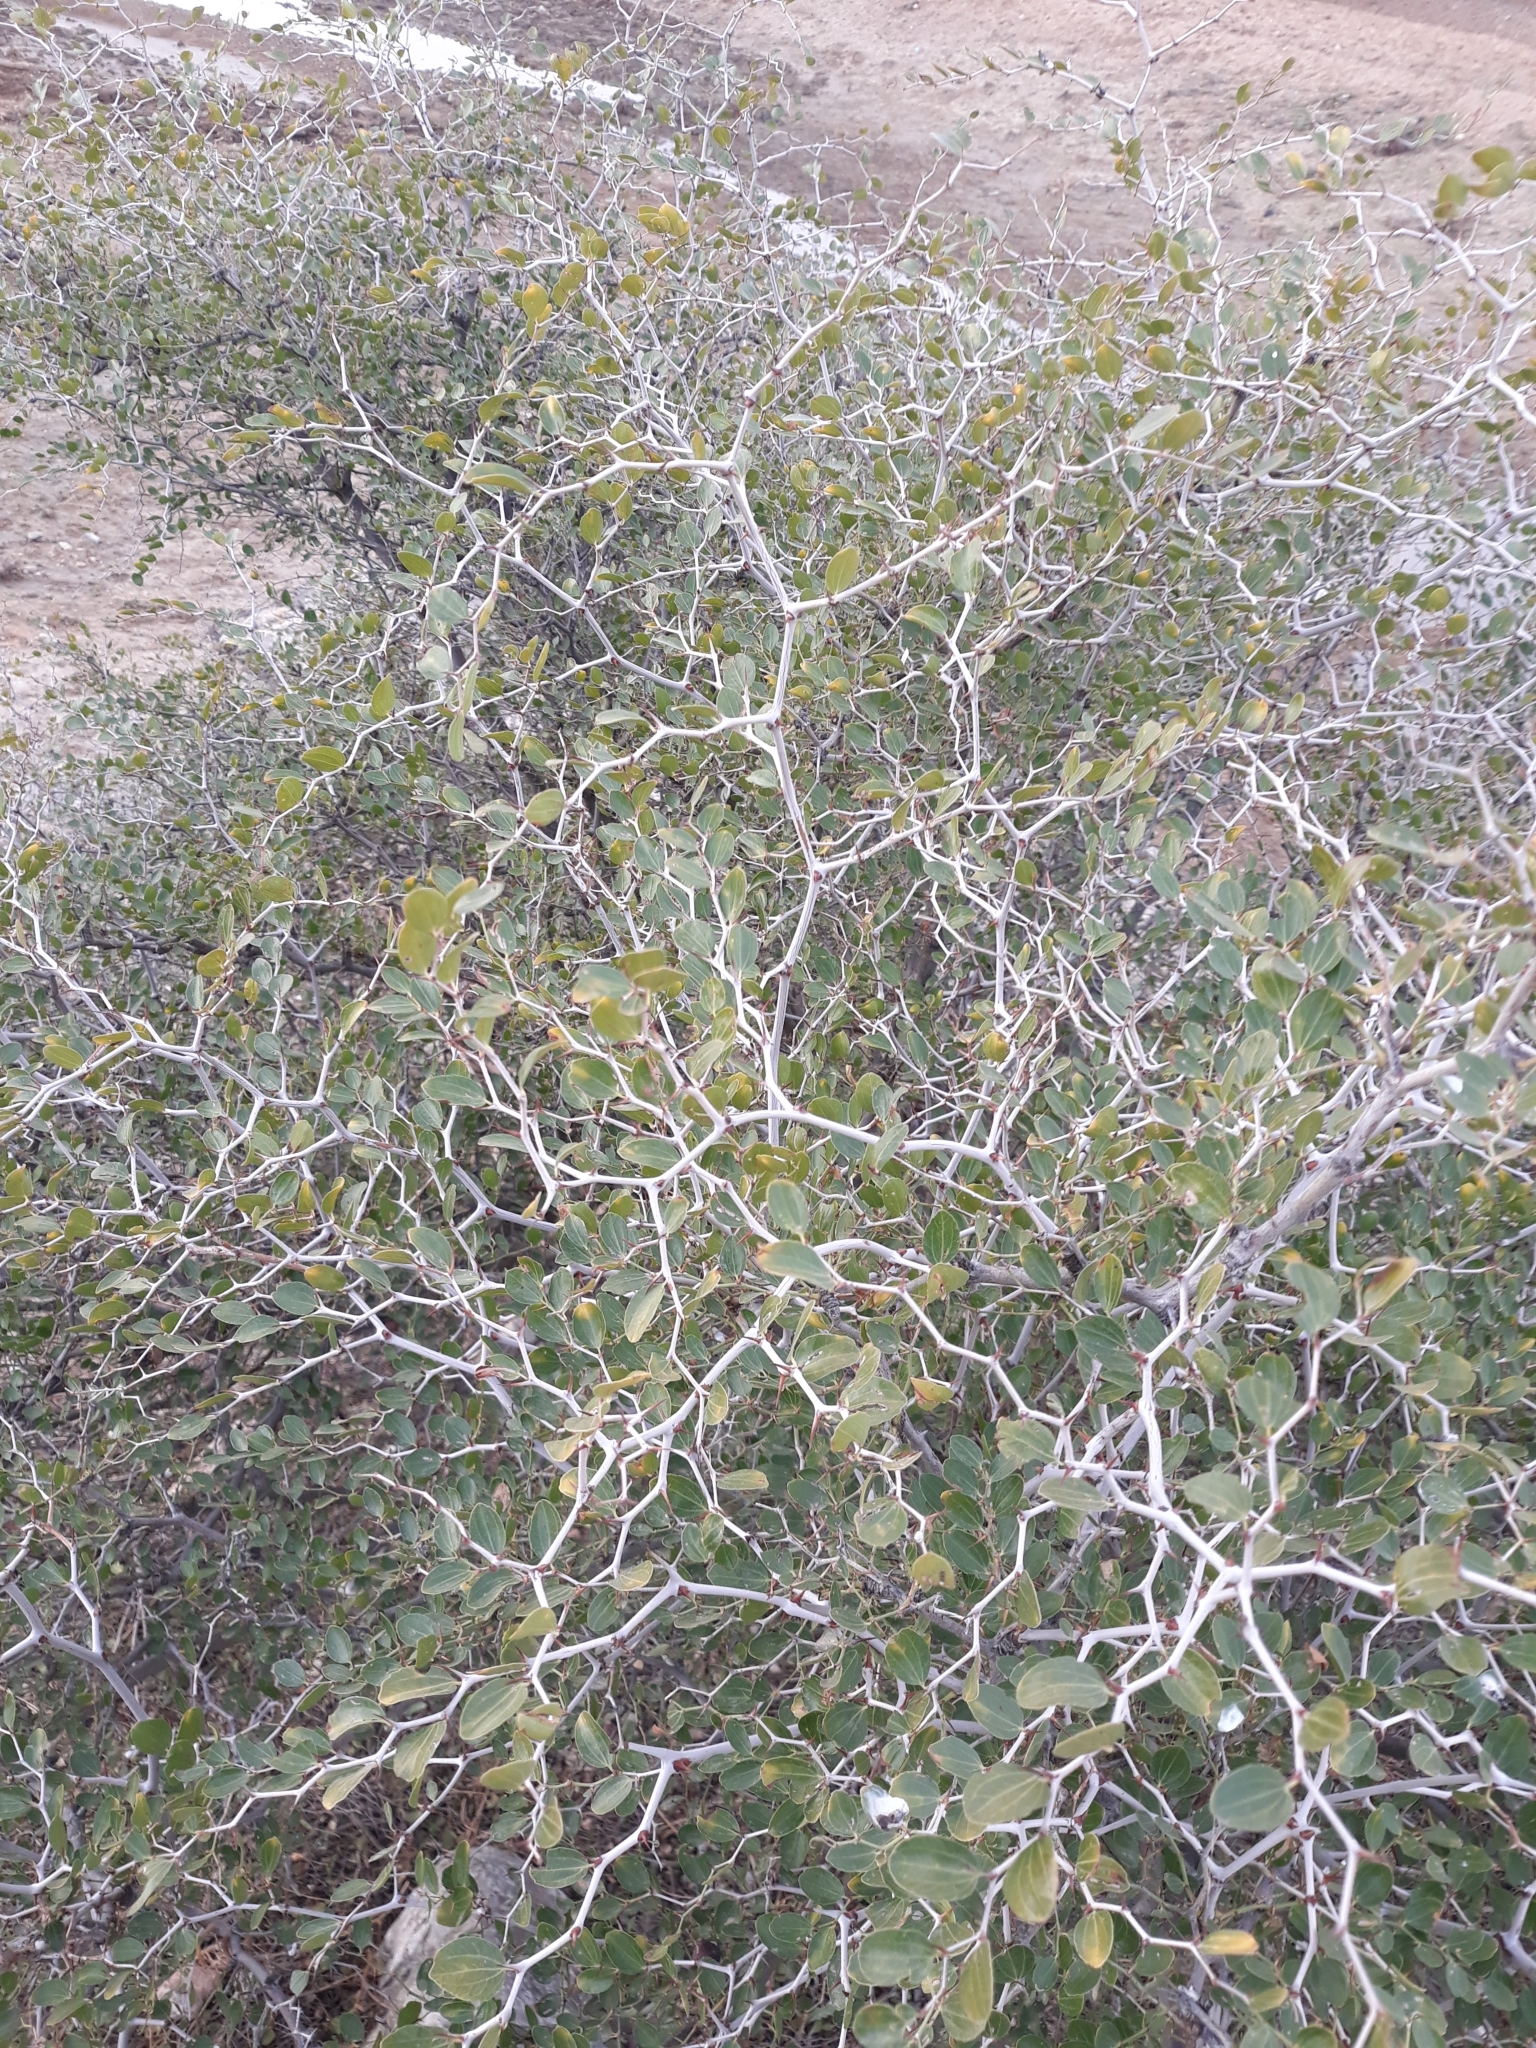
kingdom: Plantae
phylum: Tracheophyta
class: Magnoliopsida
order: Rosales
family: Rhamnaceae
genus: Ziziphus
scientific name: Ziziphus lotus
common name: Lotus
